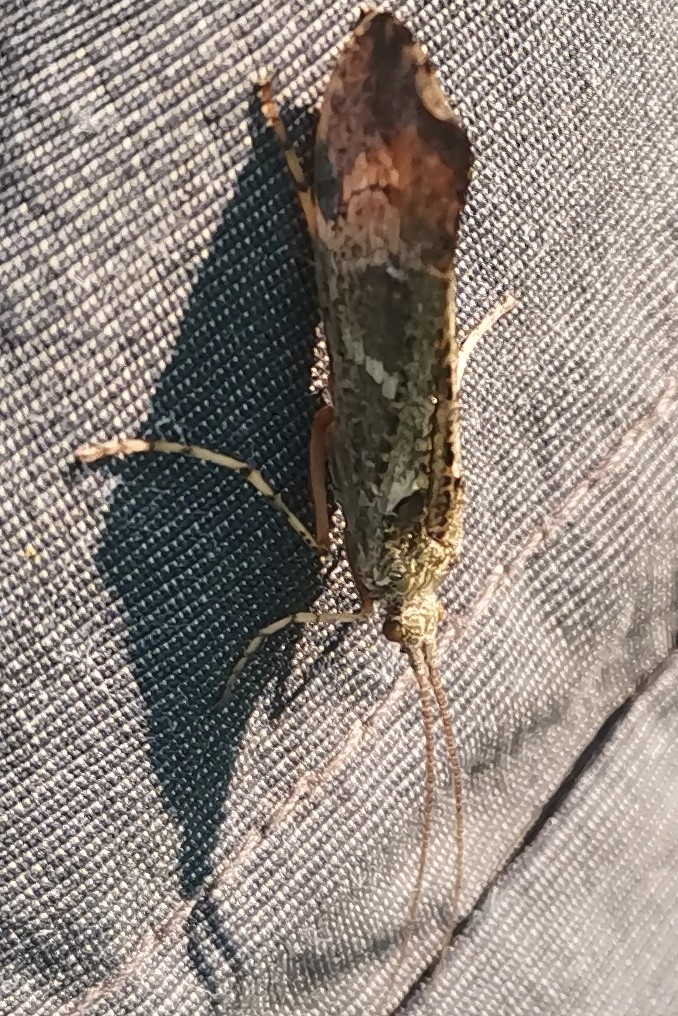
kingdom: Animalia
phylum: Arthropoda
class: Insecta
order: Trichoptera
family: Limnephilidae
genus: Glyphotaelius
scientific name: Glyphotaelius pellucidus
